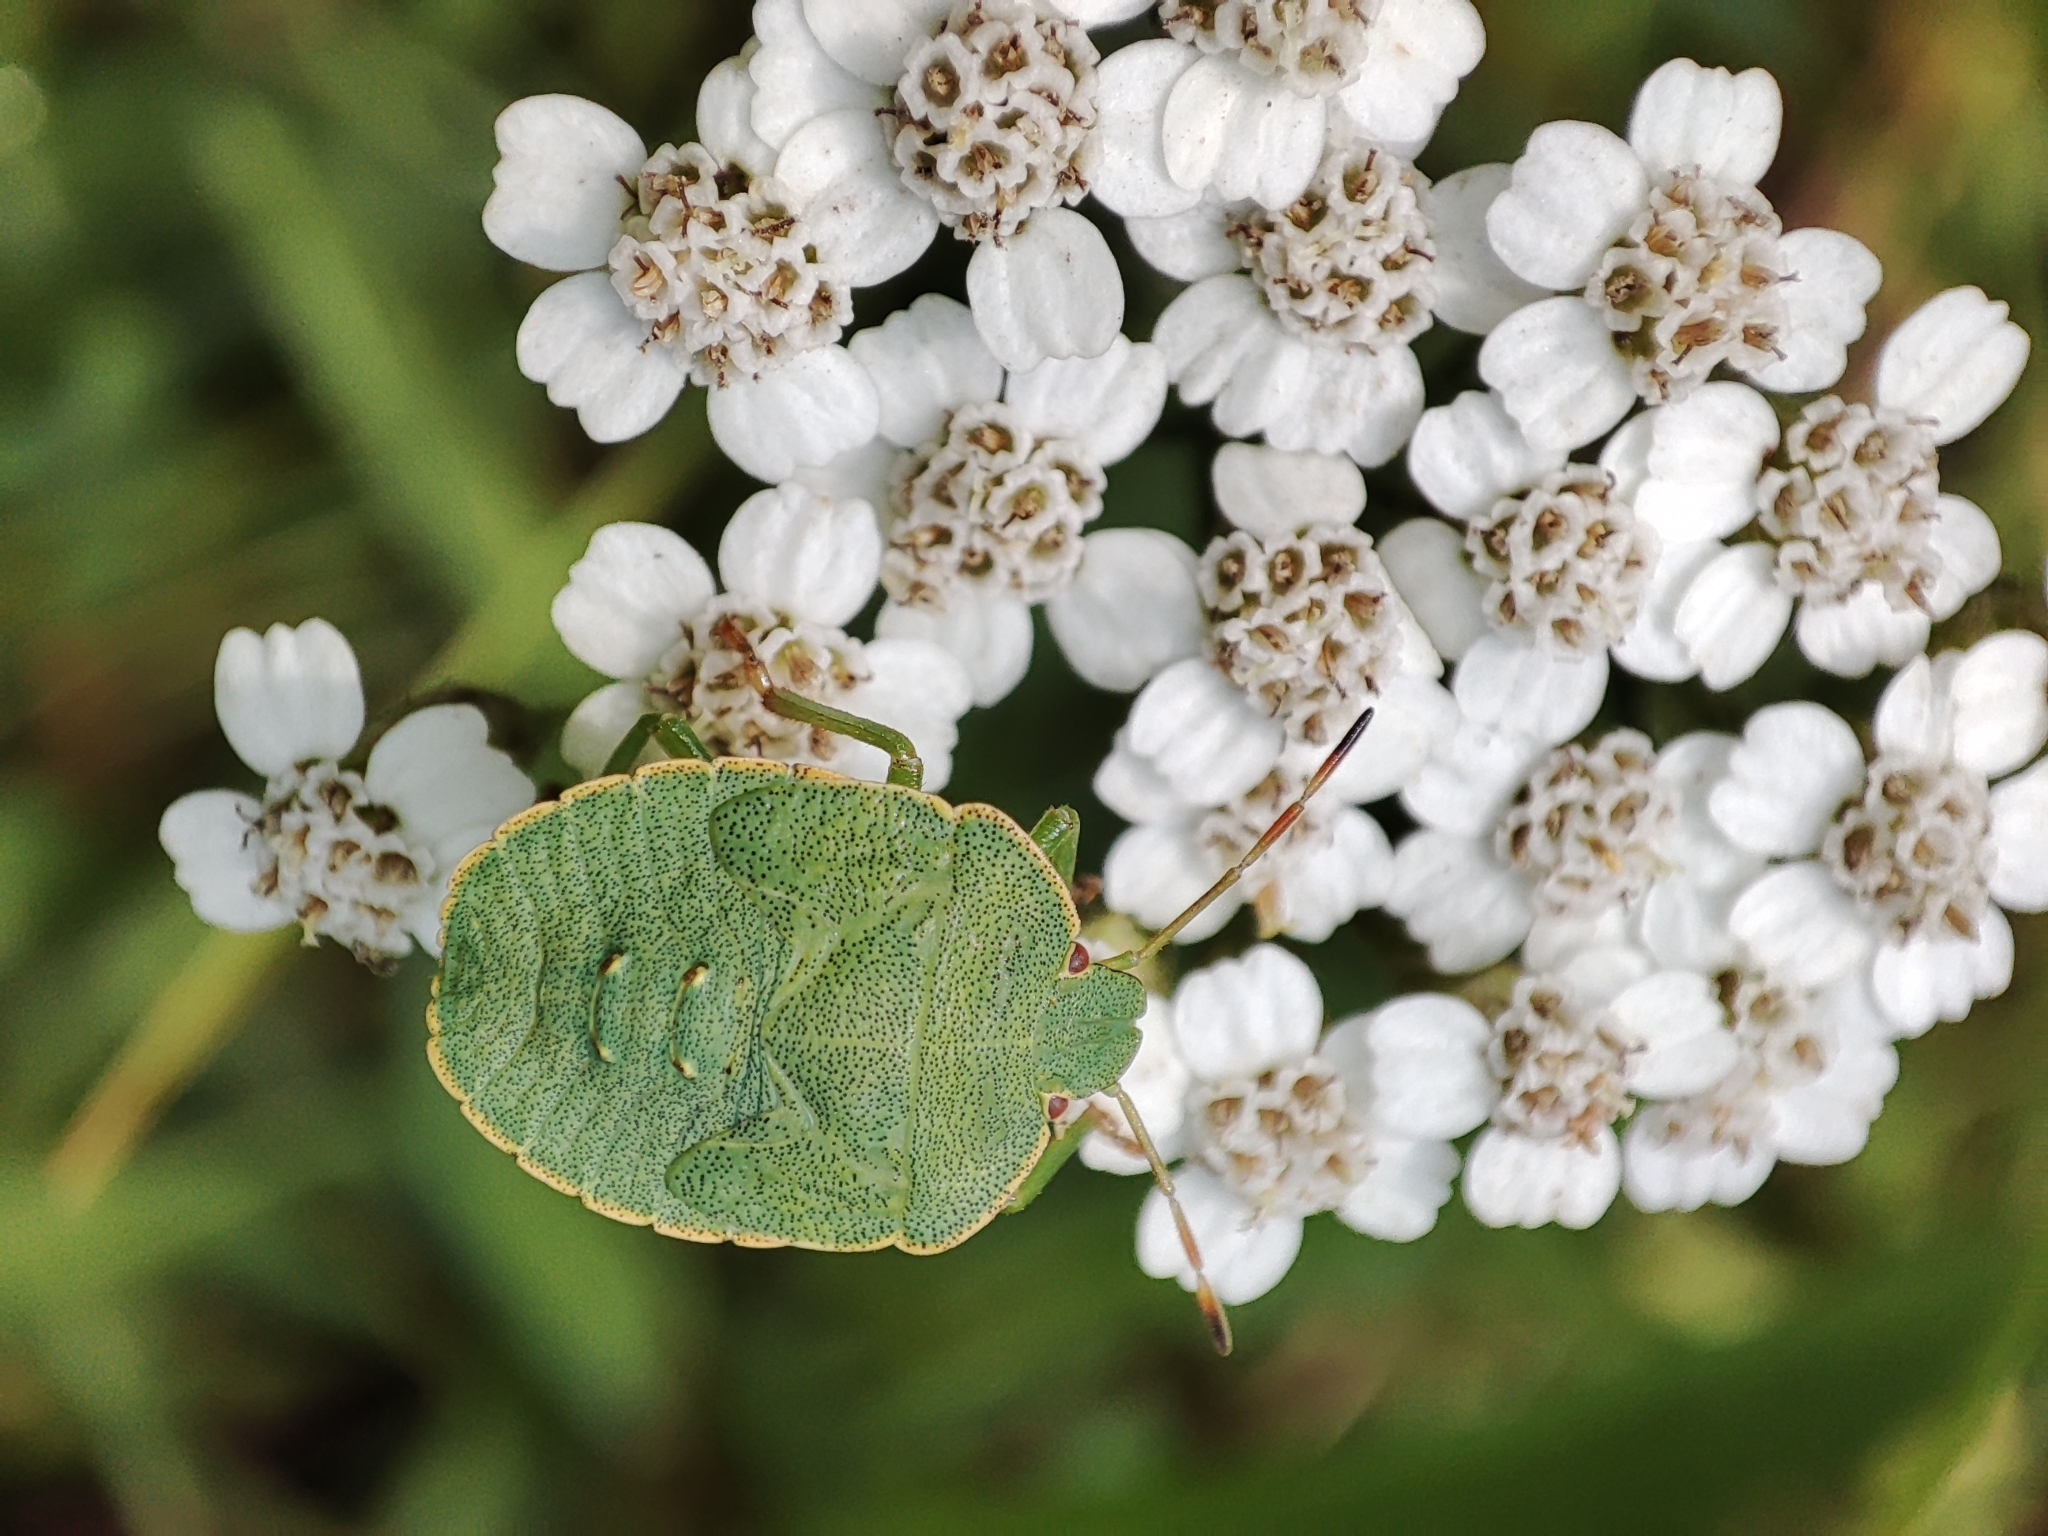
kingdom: Animalia
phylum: Arthropoda
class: Insecta
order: Hemiptera
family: Pentatomidae
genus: Palomena
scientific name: Palomena prasina
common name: Green shieldbug
